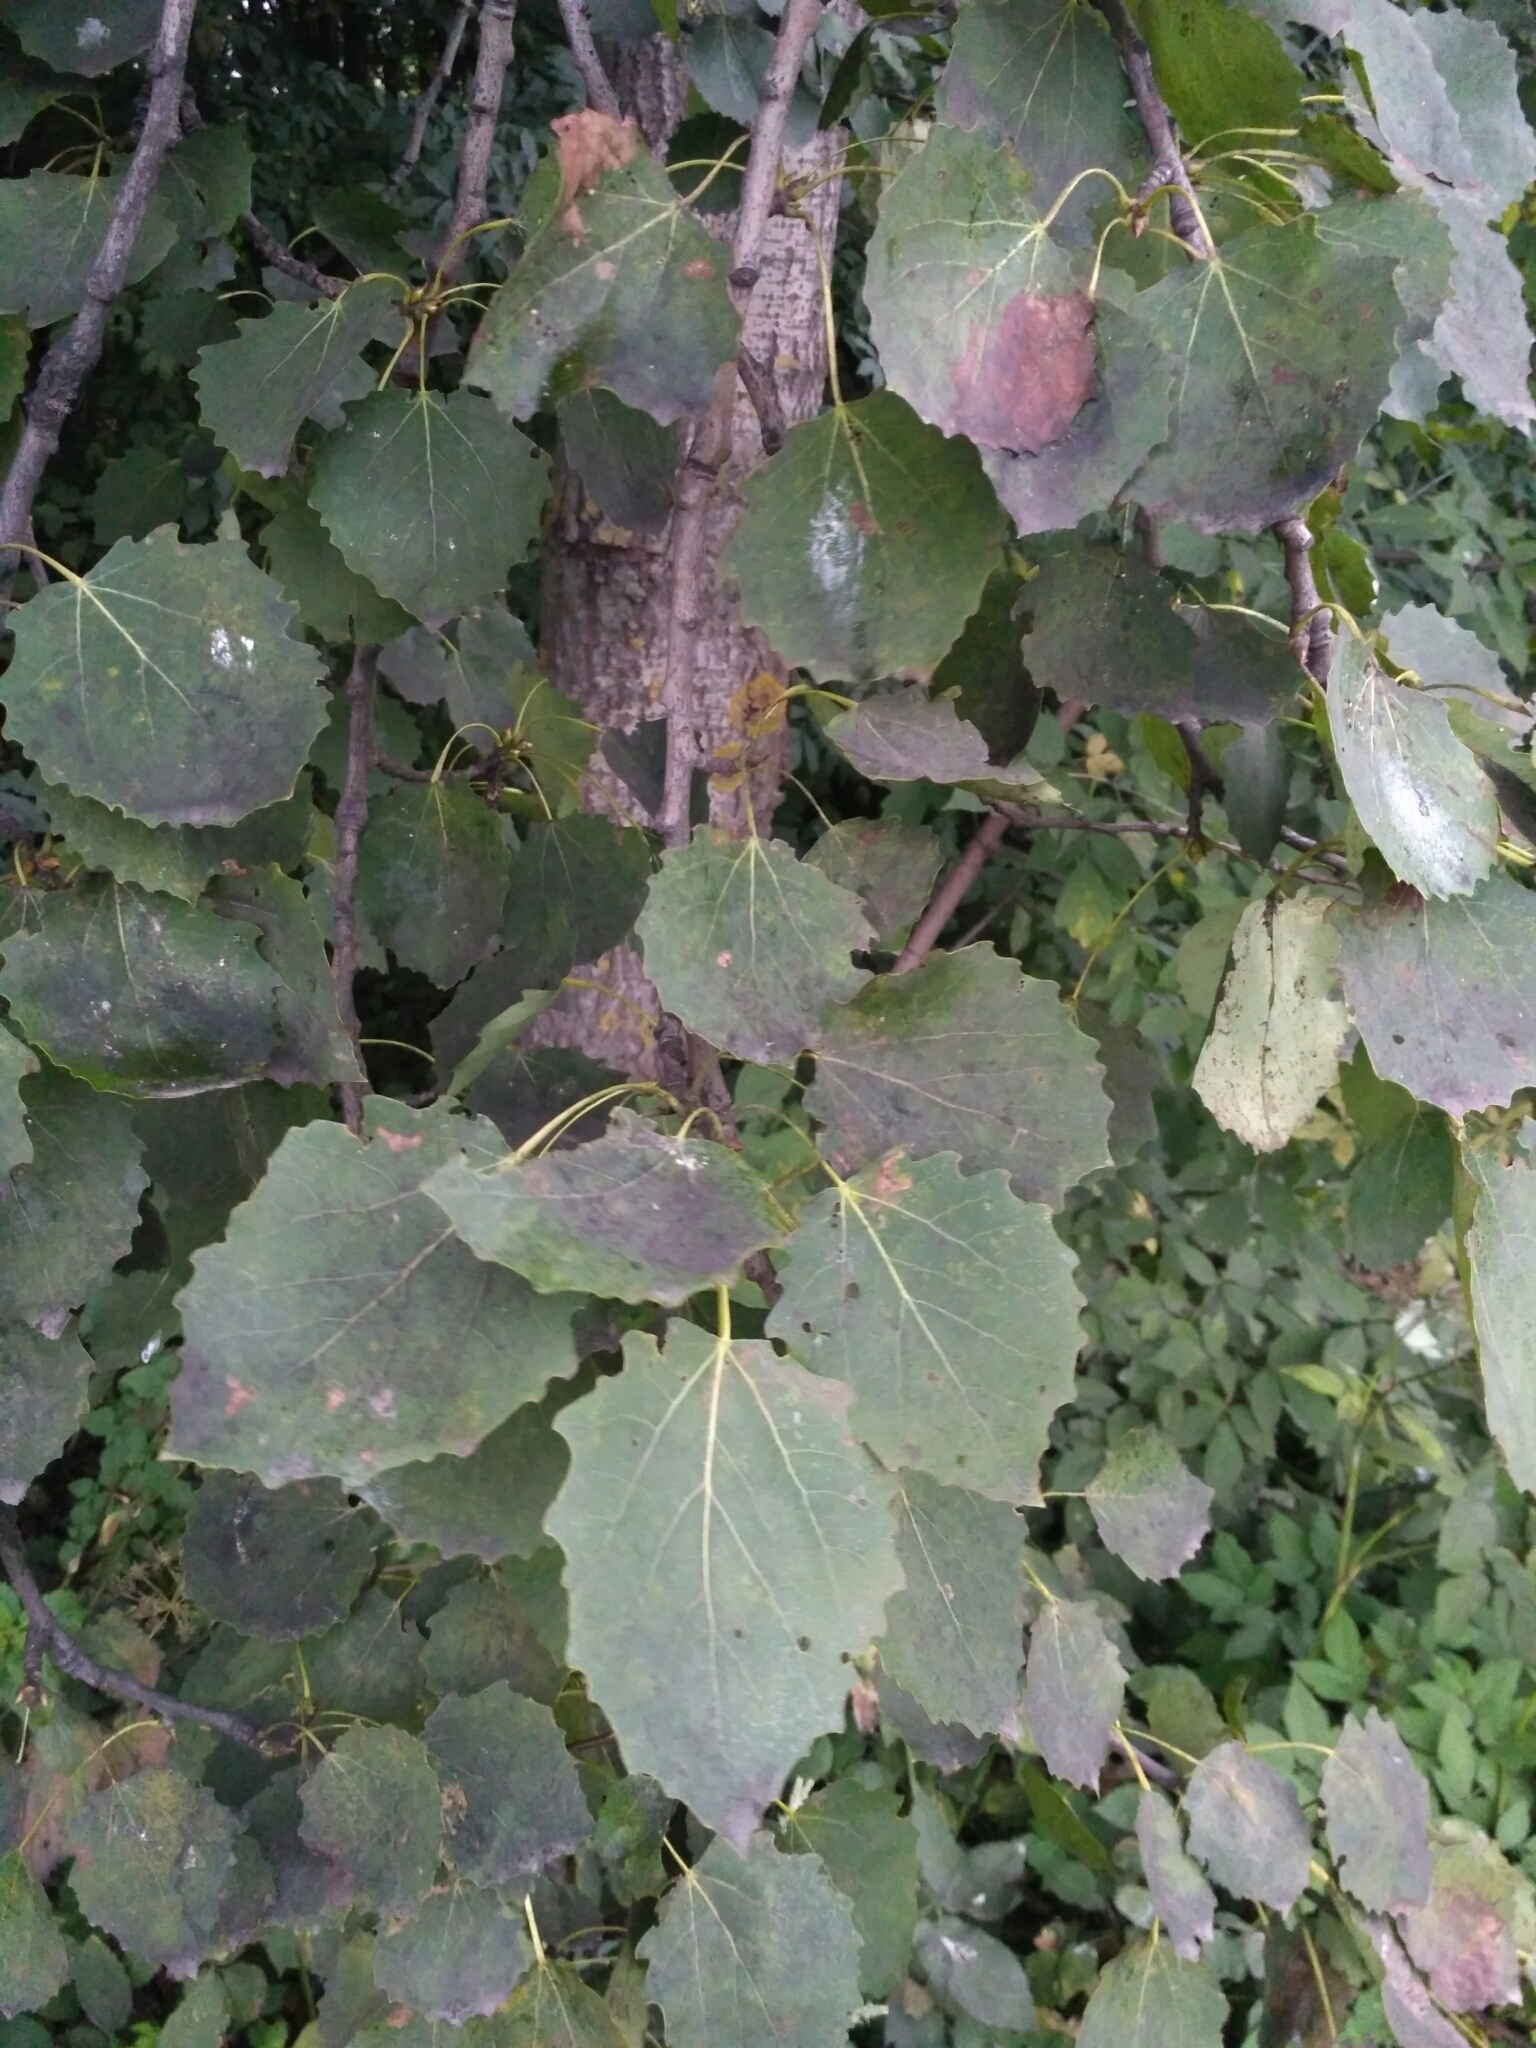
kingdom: Plantae
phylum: Tracheophyta
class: Magnoliopsida
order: Malpighiales
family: Salicaceae
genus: Populus
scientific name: Populus tremula
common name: European aspen
